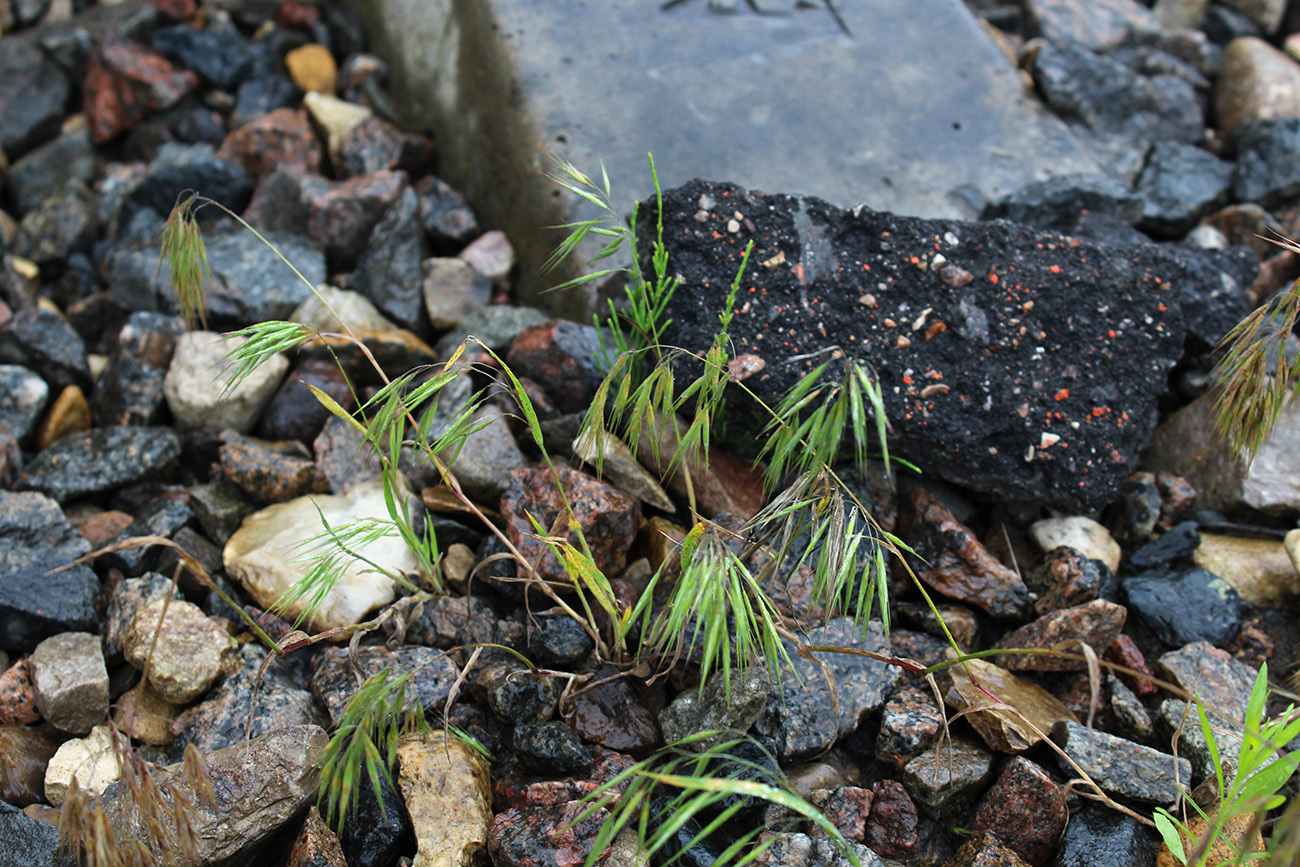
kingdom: Plantae
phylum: Tracheophyta
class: Liliopsida
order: Poales
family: Poaceae
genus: Bromus
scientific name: Bromus tectorum
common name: Cheatgrass
